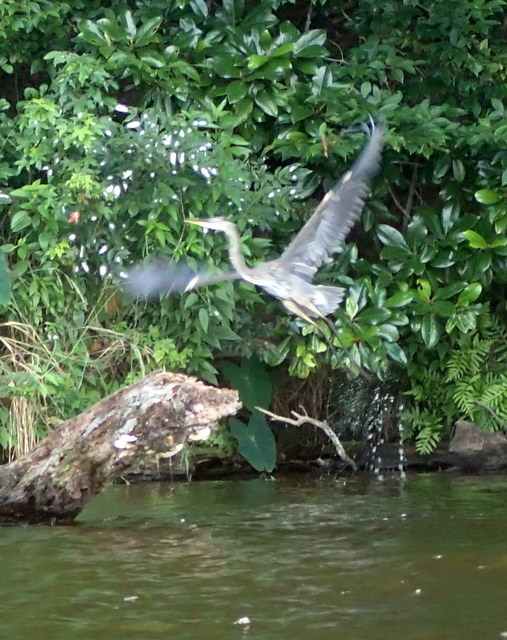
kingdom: Animalia
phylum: Chordata
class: Aves
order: Pelecaniformes
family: Ardeidae
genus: Ardea
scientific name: Ardea herodias
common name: Great blue heron
